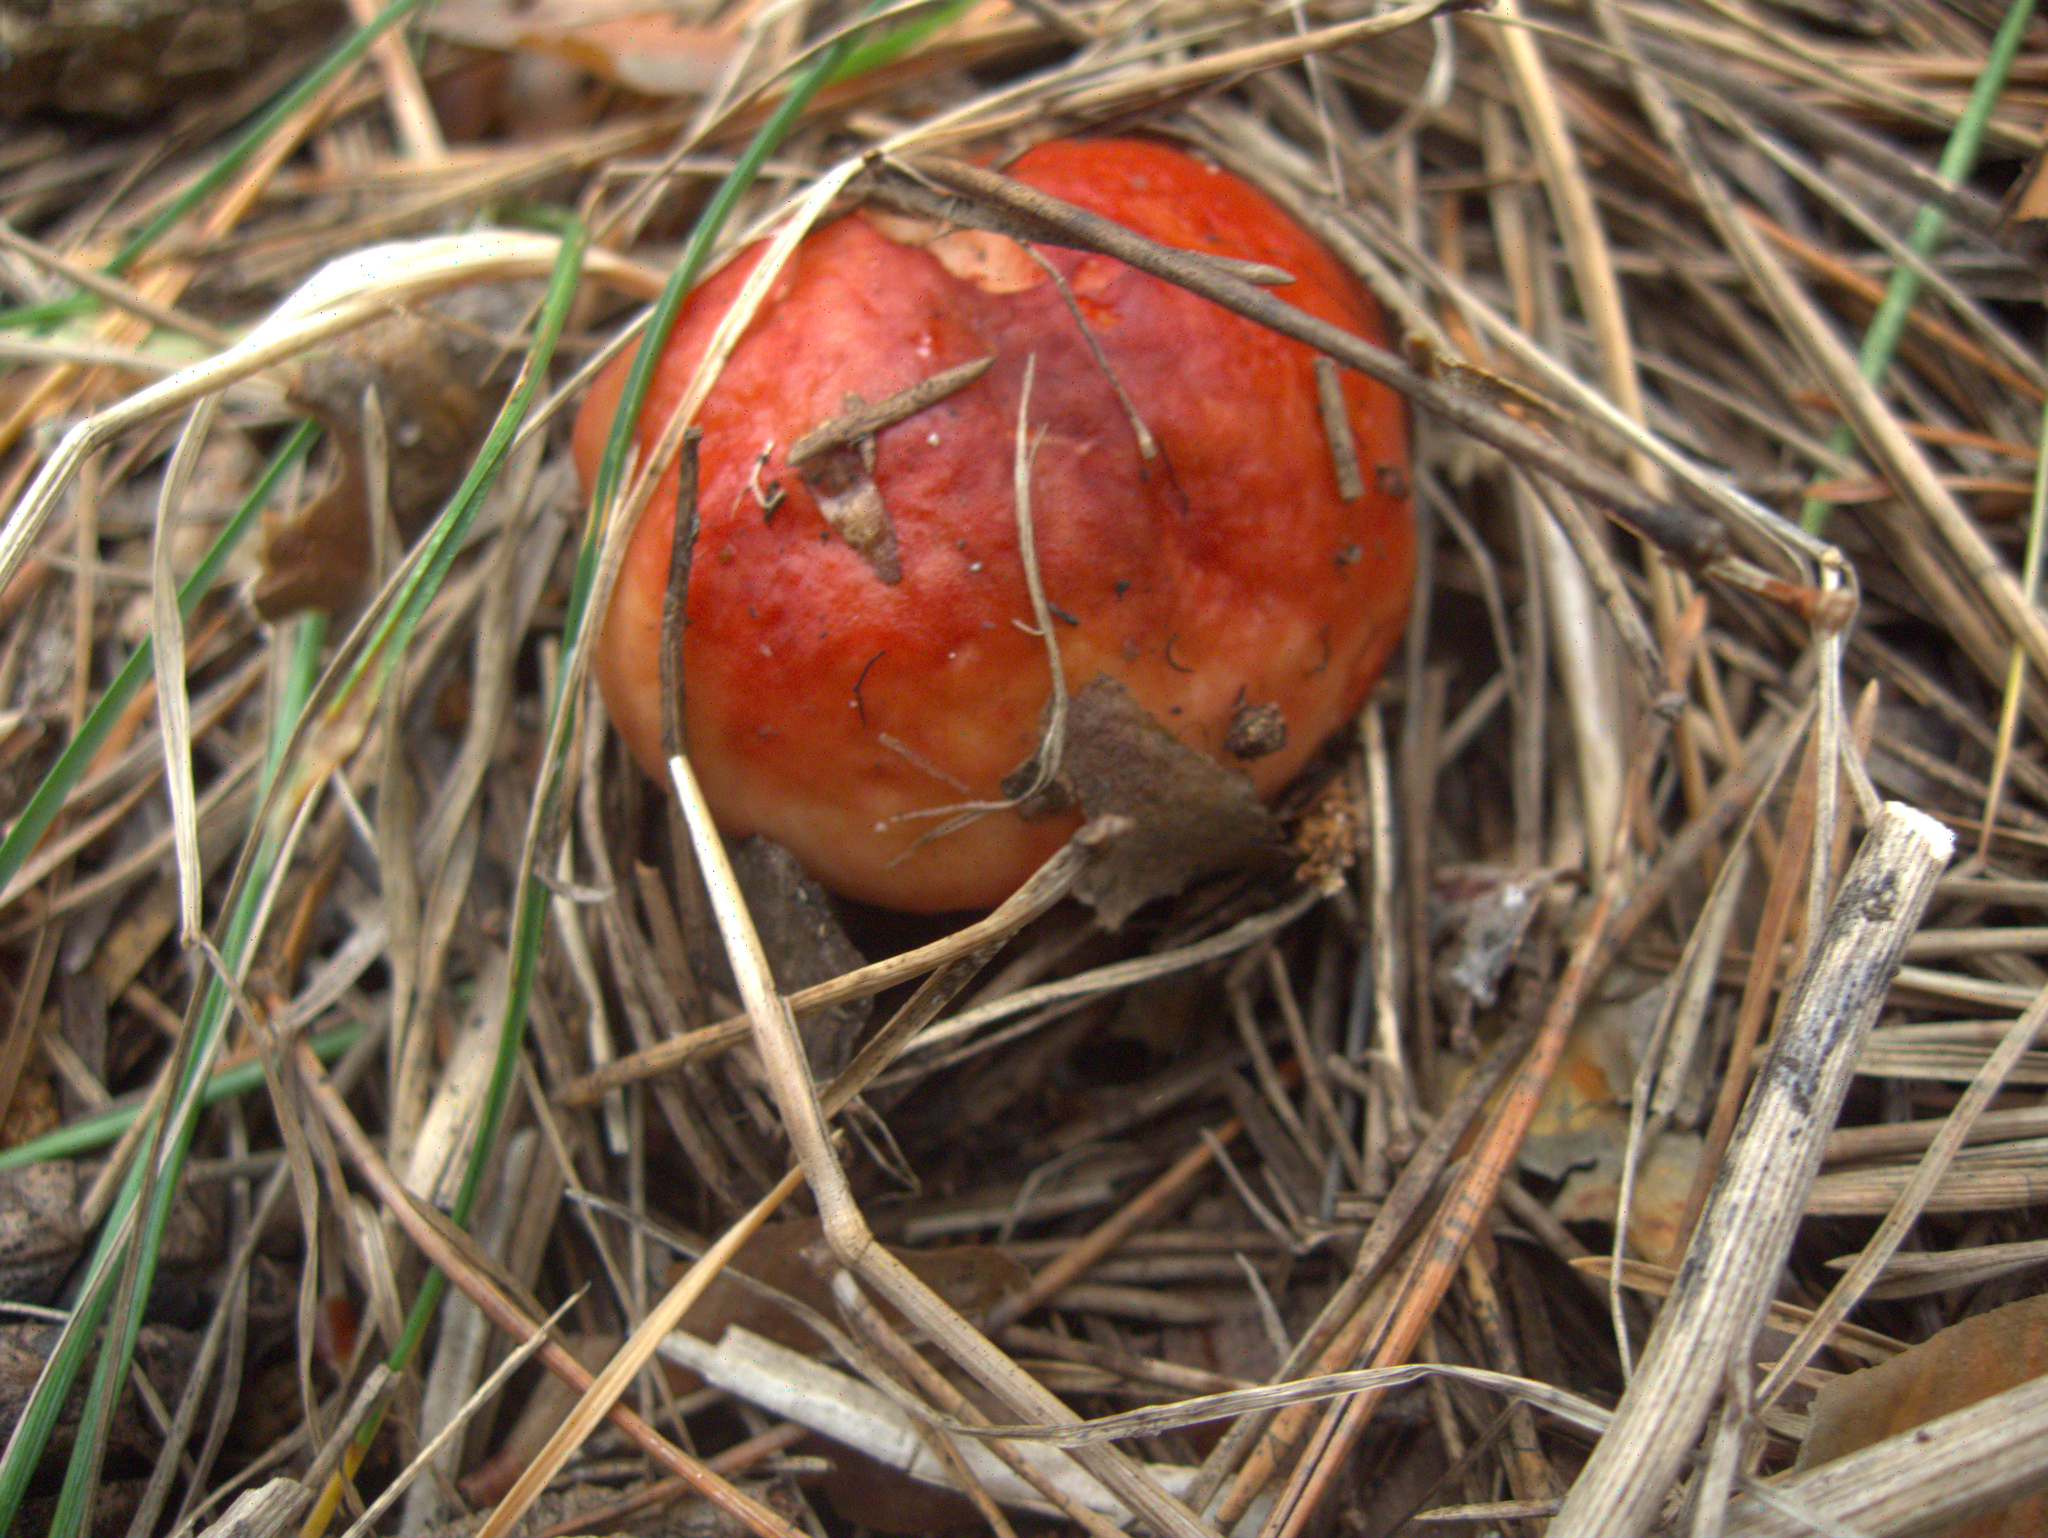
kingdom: Fungi
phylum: Basidiomycota
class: Agaricomycetes
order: Russulales
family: Russulaceae
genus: Russula
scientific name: Russula
